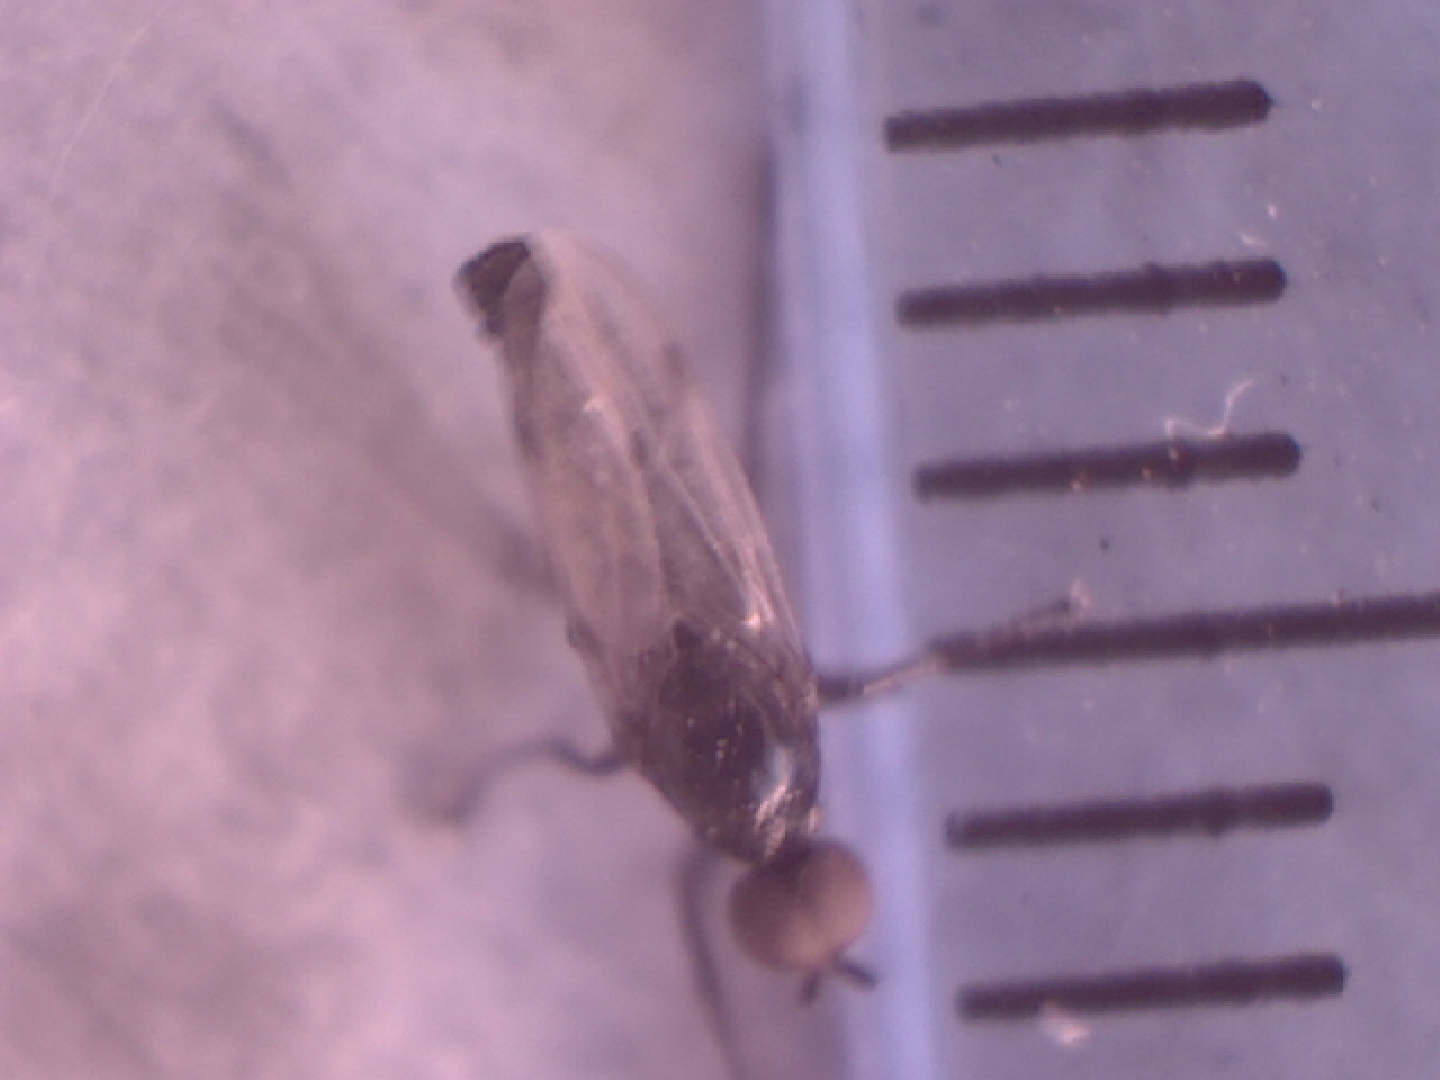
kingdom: Animalia
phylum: Arthropoda
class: Insecta
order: Diptera
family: Bibionidae
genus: Dilophus
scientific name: Dilophus
